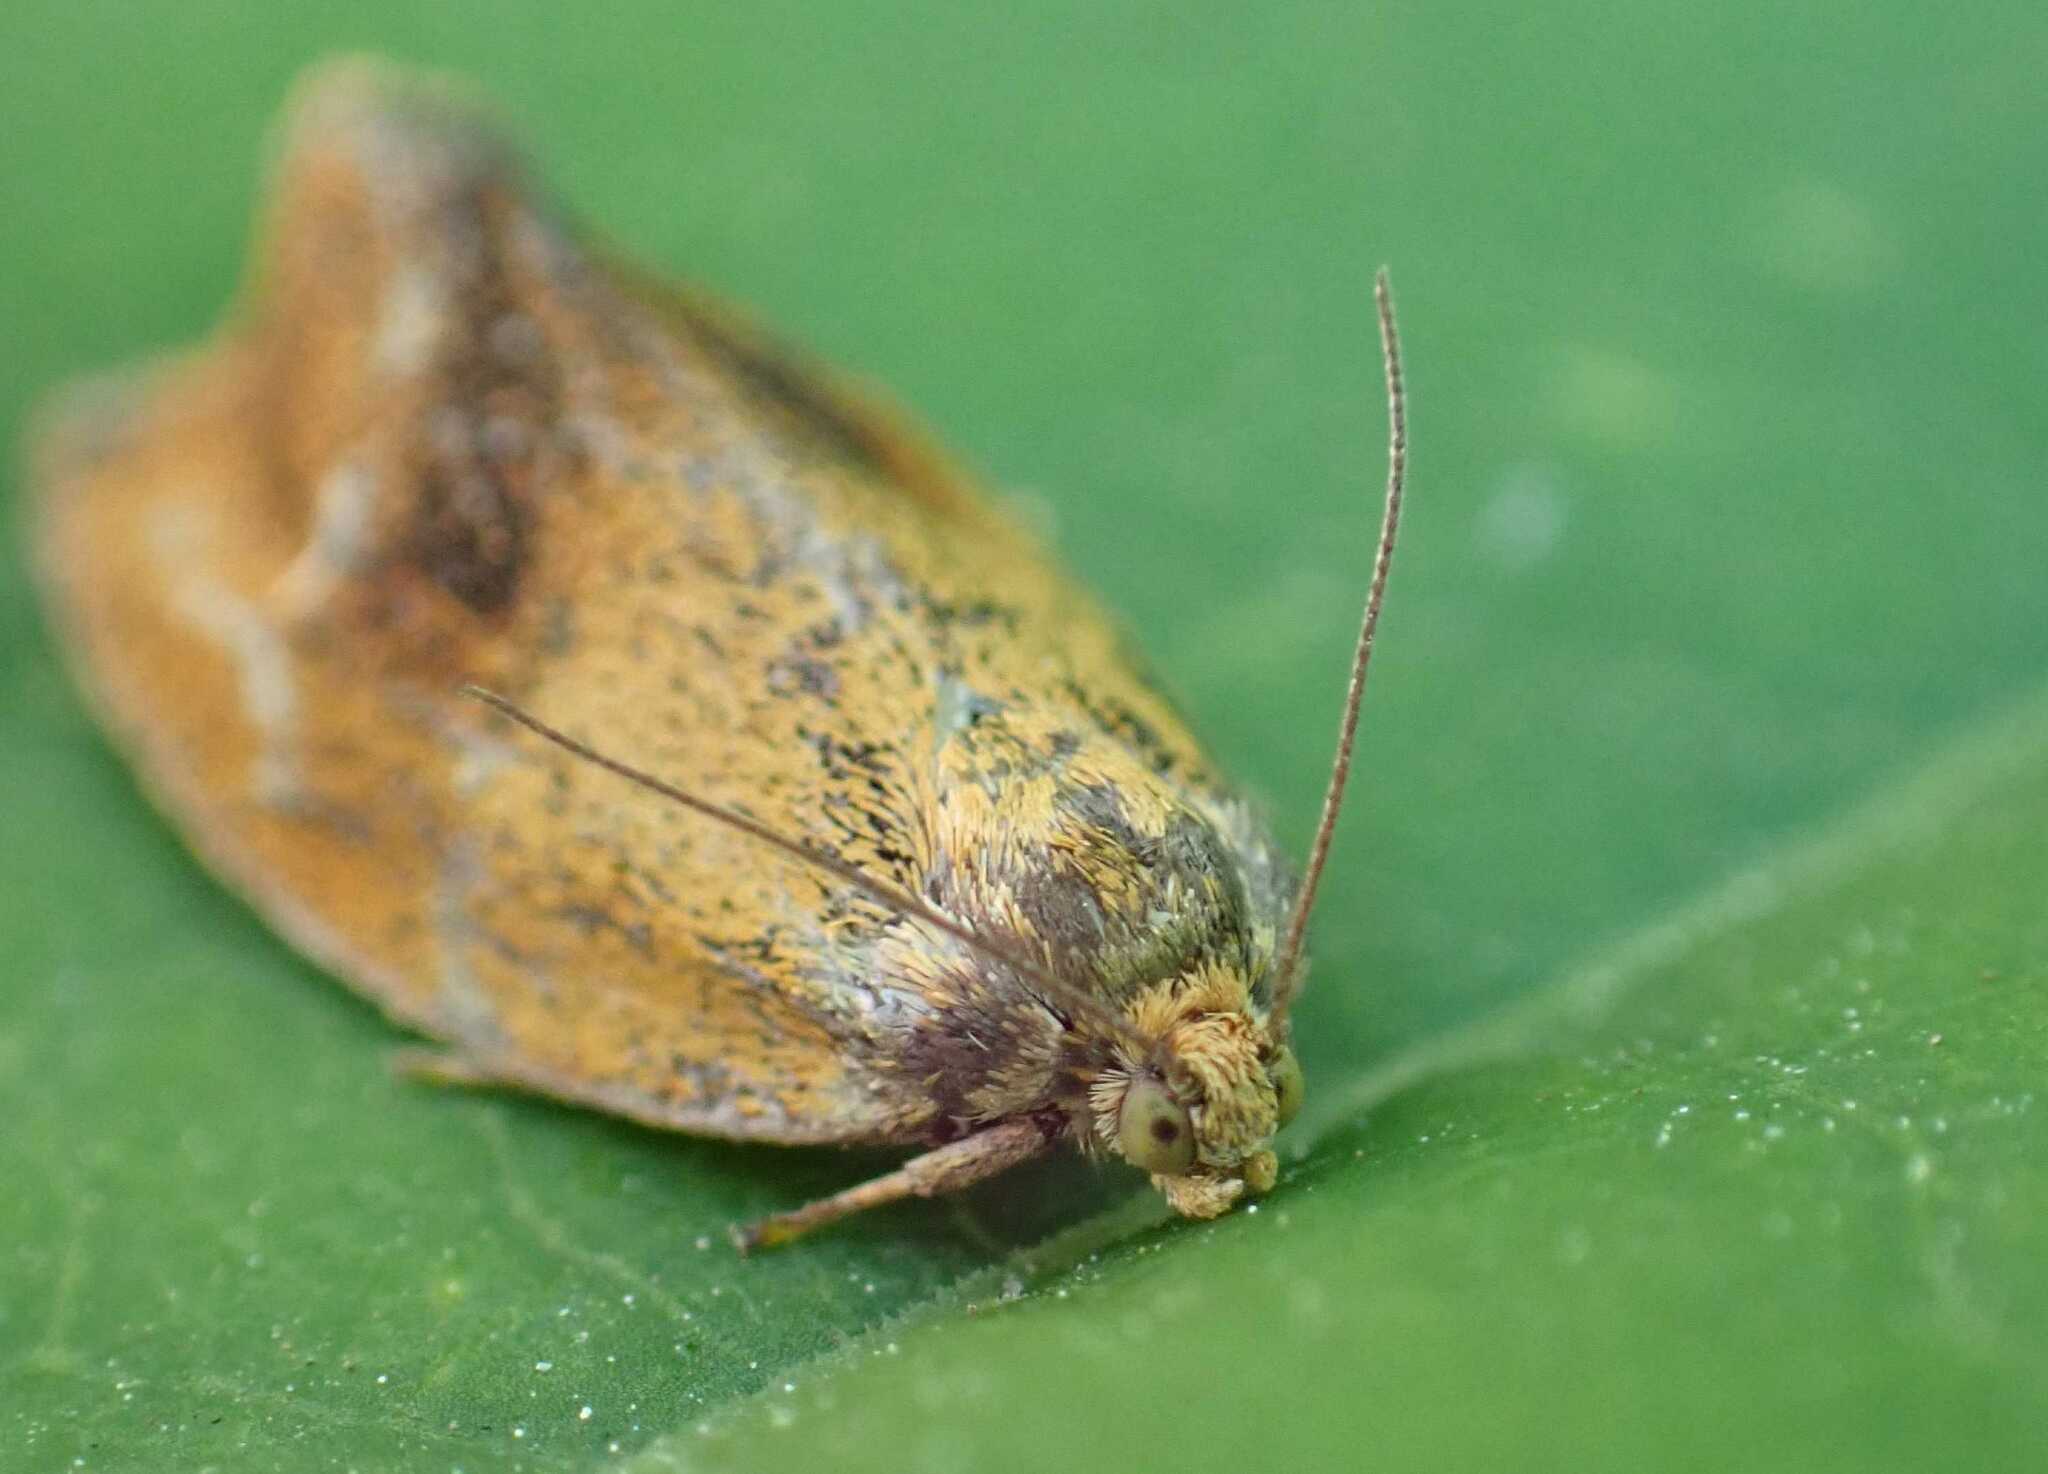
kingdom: Animalia
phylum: Arthropoda
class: Insecta
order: Lepidoptera
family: Tortricidae
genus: Ptycholoma
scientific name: Ptycholoma lecheana
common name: Leches twist moth
